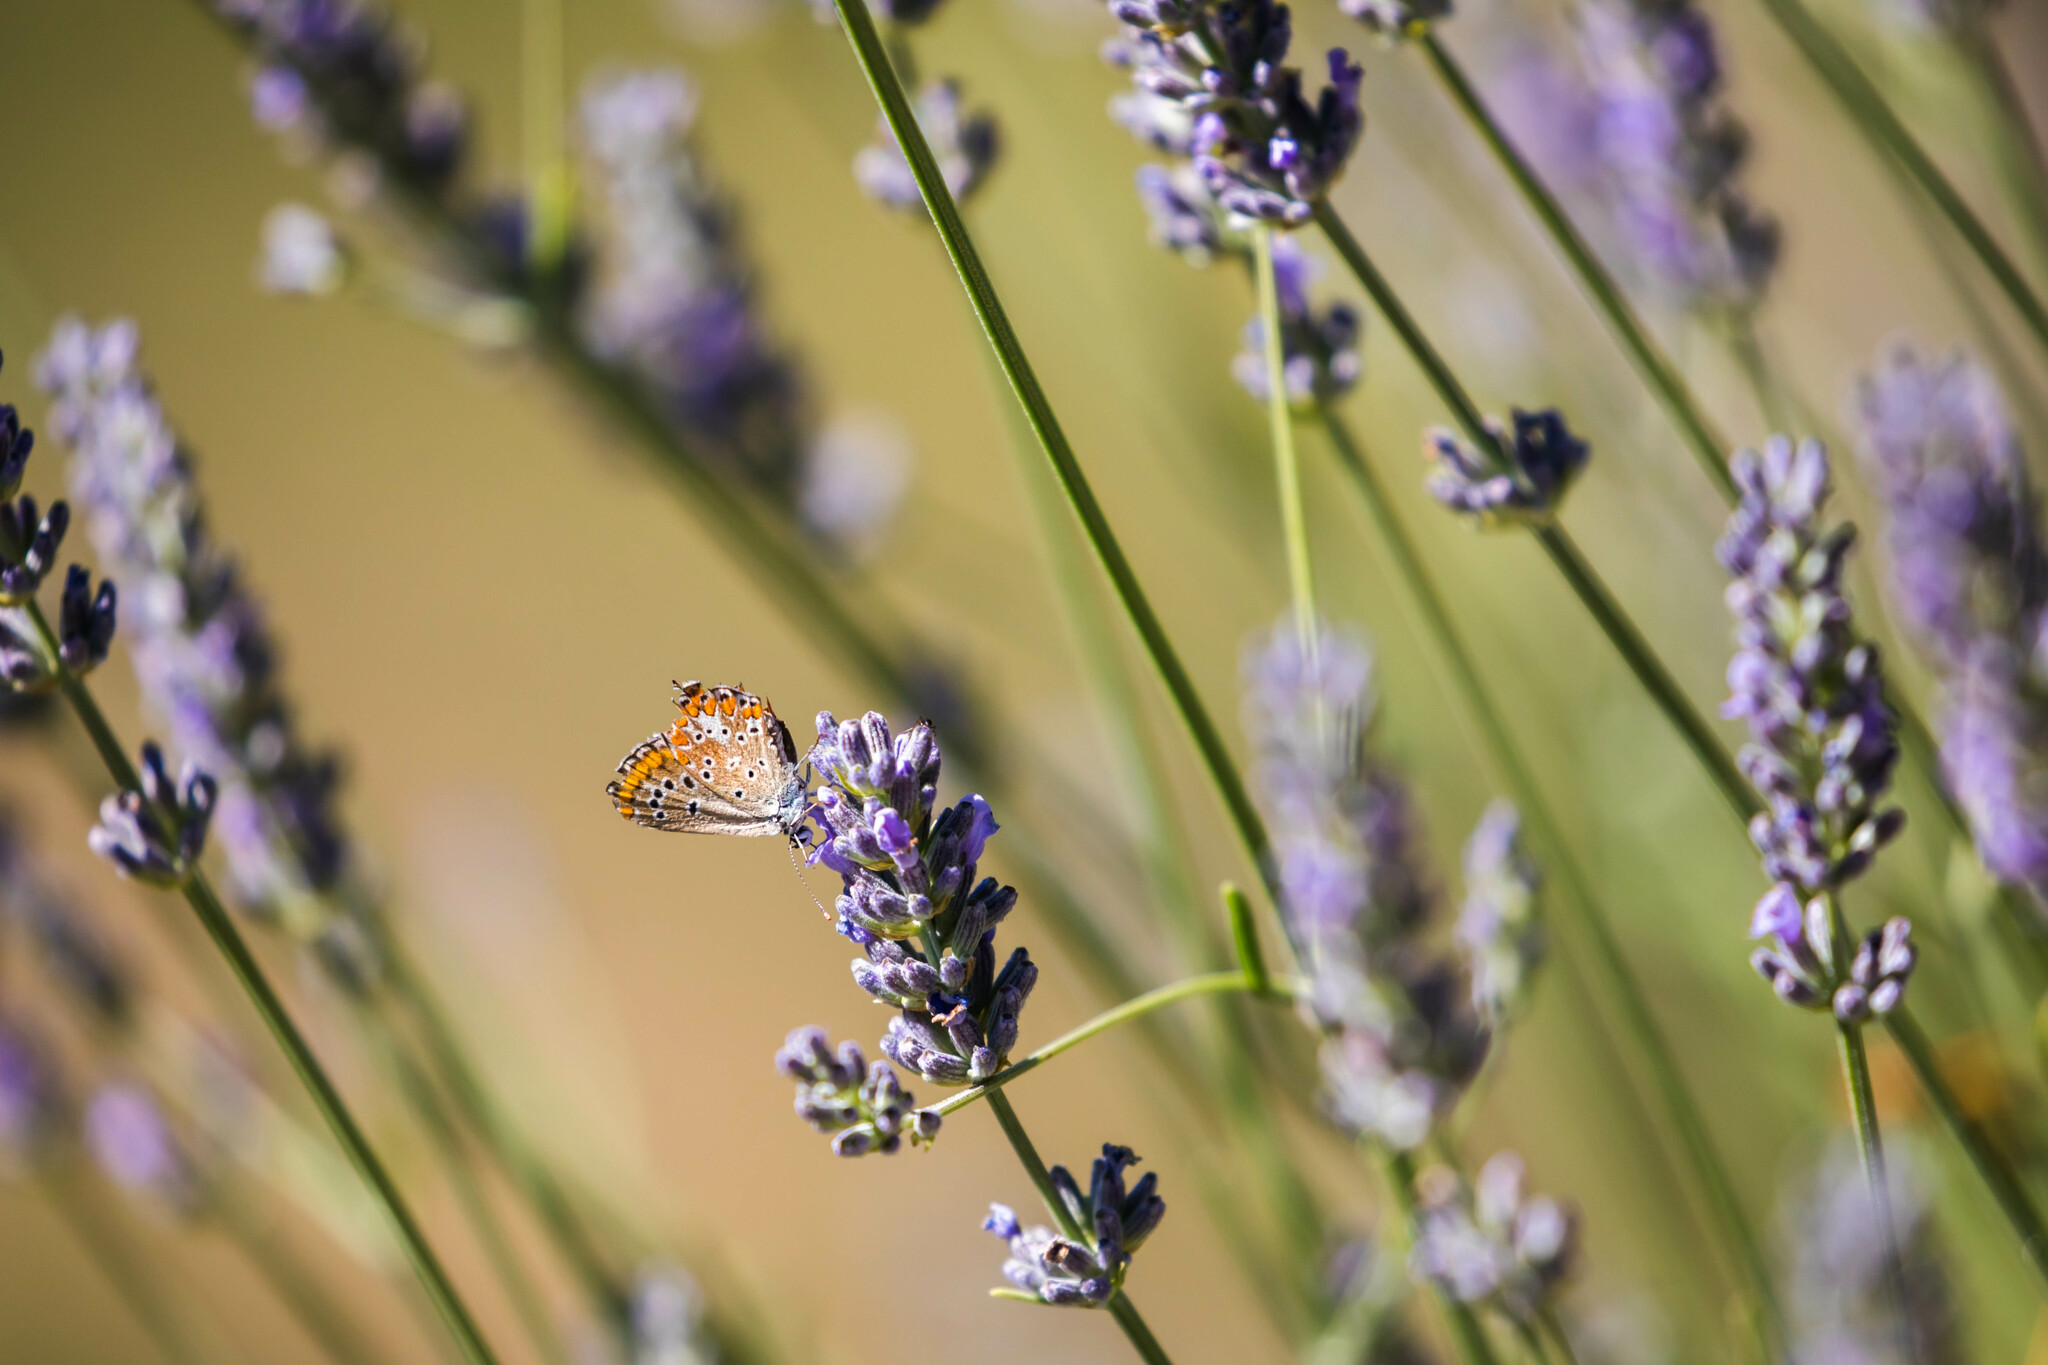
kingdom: Animalia
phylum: Arthropoda
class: Insecta
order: Lepidoptera
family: Lycaenidae
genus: Aricia
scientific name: Aricia agestis
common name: Brown argus
